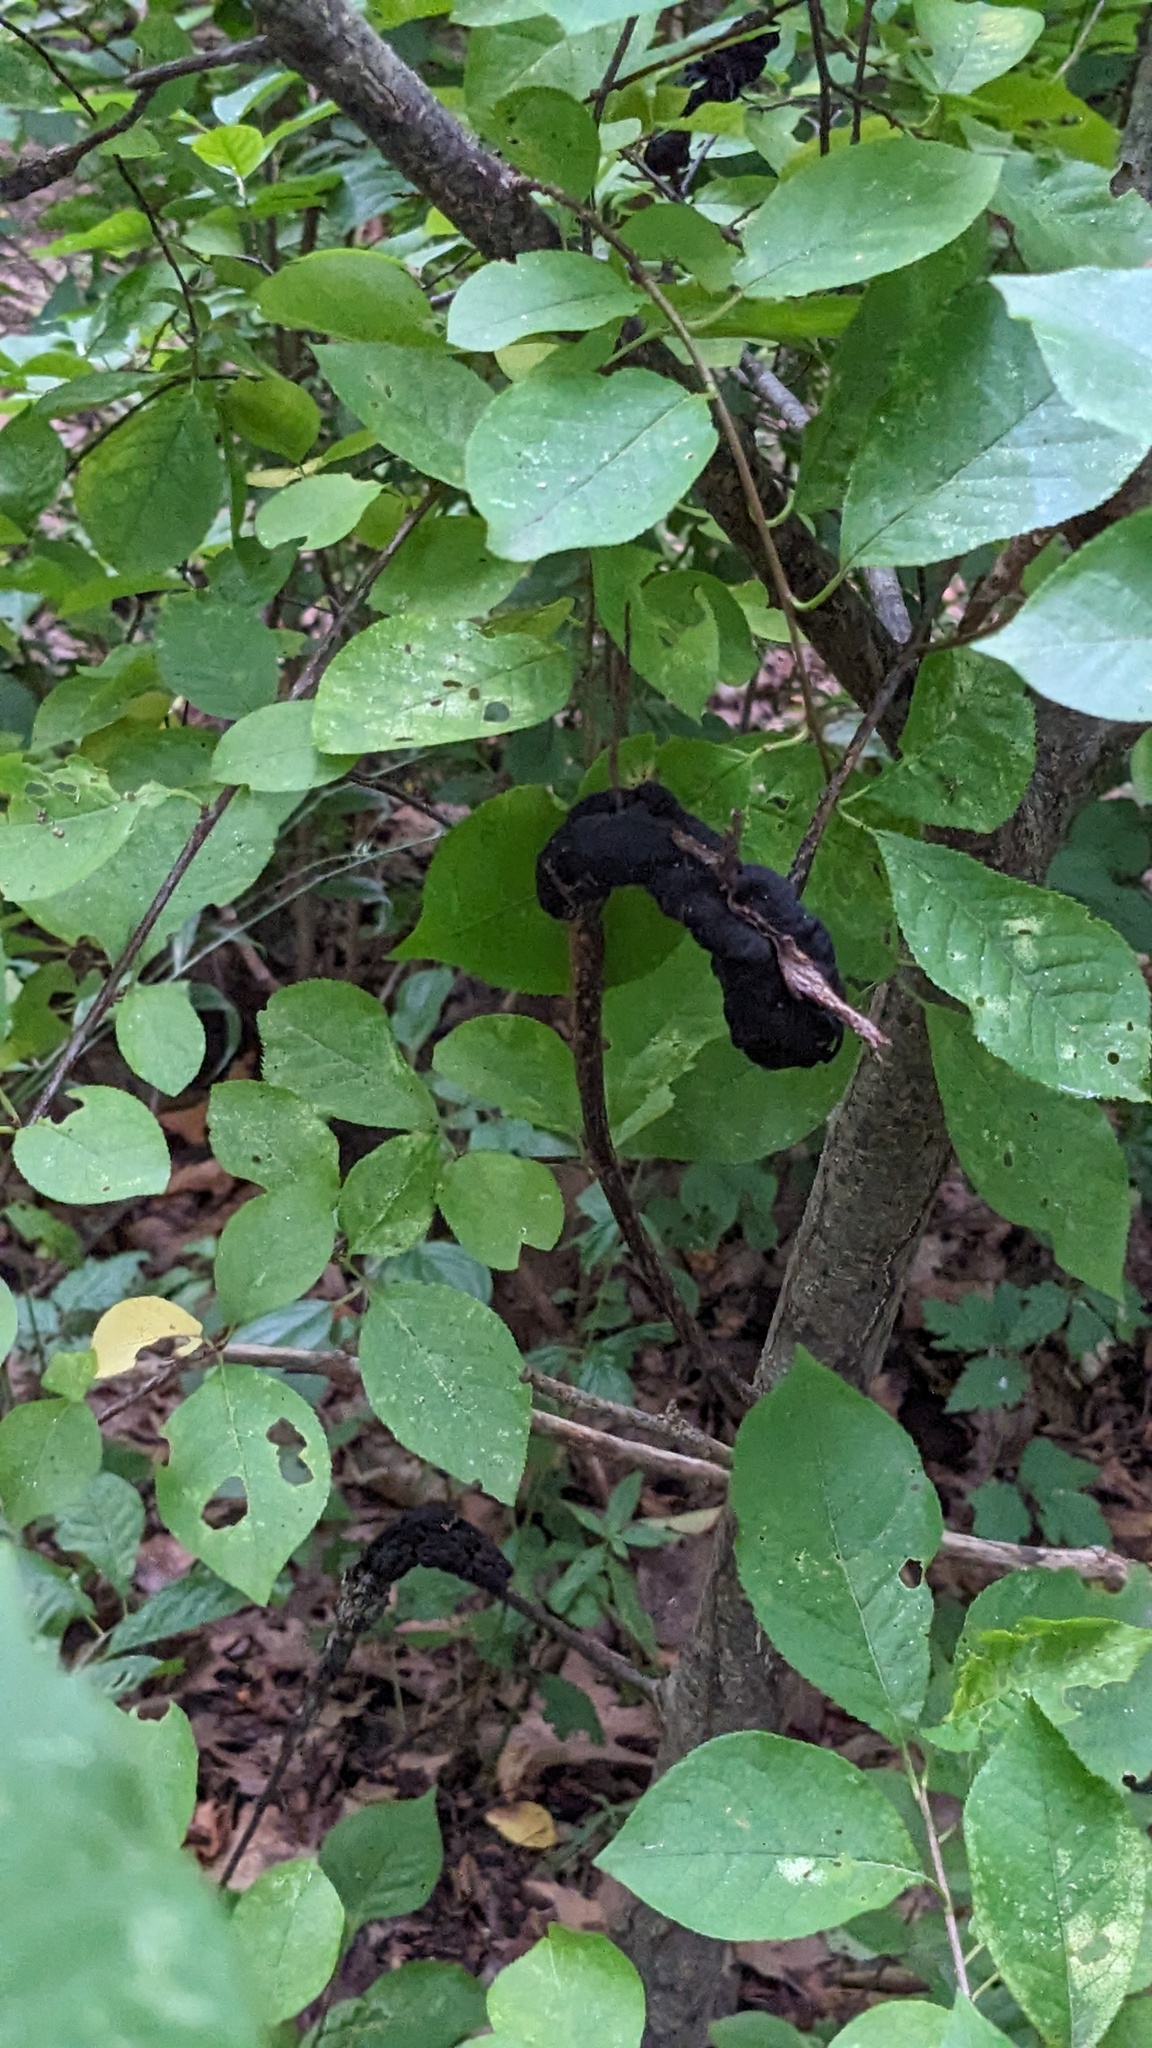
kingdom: Fungi
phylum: Ascomycota
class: Dothideomycetes
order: Venturiales
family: Venturiaceae
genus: Apiosporina
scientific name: Apiosporina morbosa
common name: Black knot
